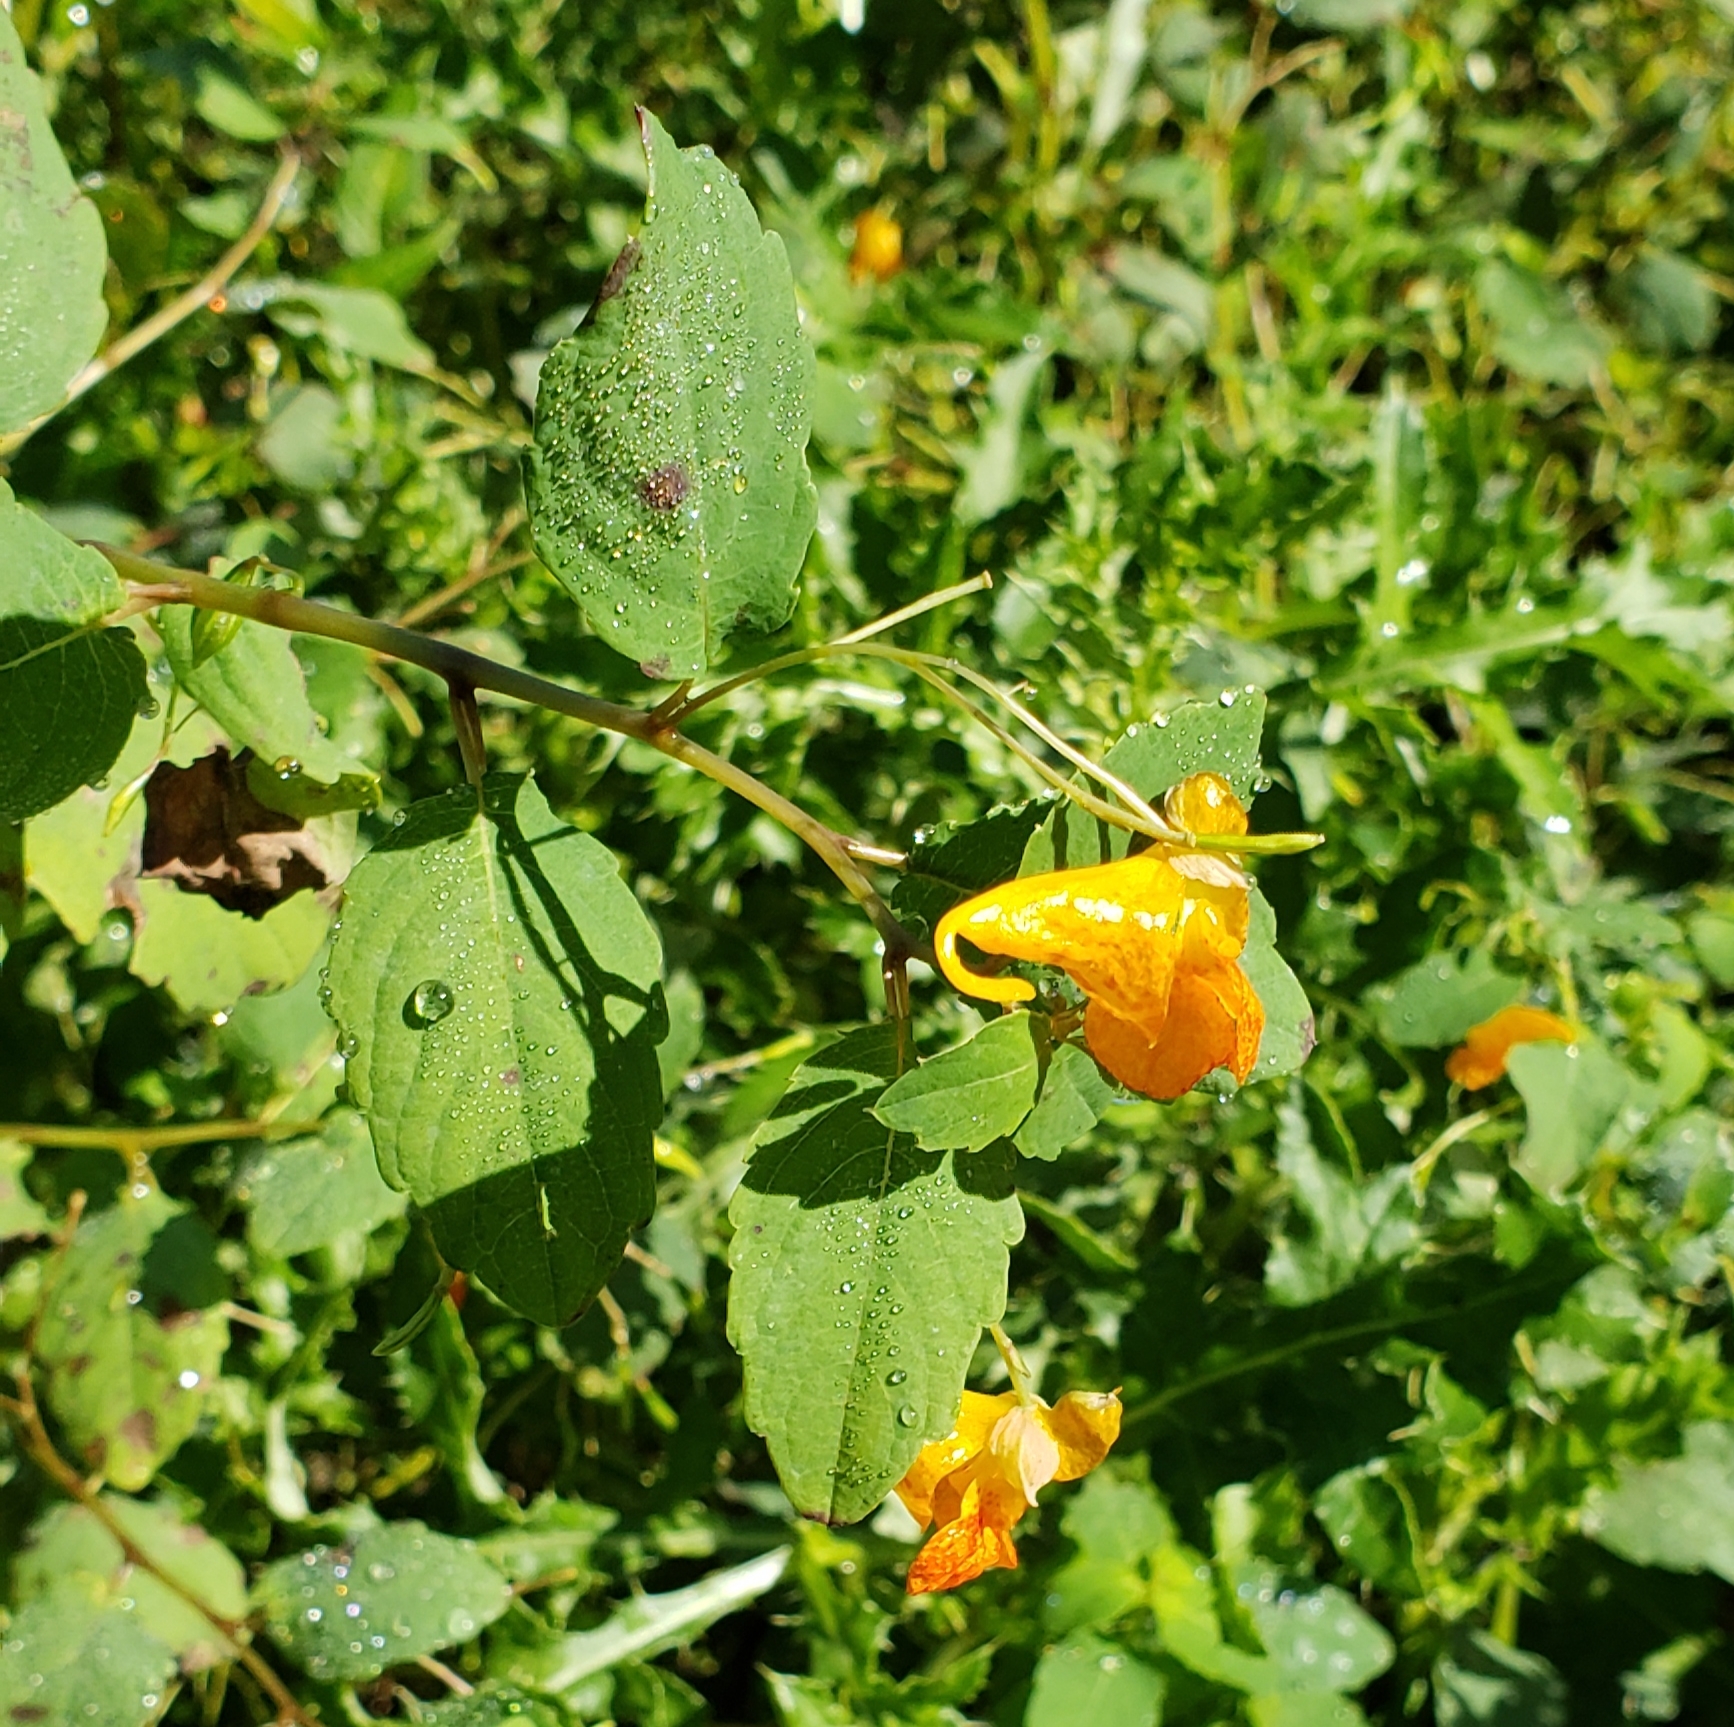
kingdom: Plantae
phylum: Tracheophyta
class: Magnoliopsida
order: Ericales
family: Balsaminaceae
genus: Impatiens
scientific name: Impatiens capensis
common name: Orange balsam
